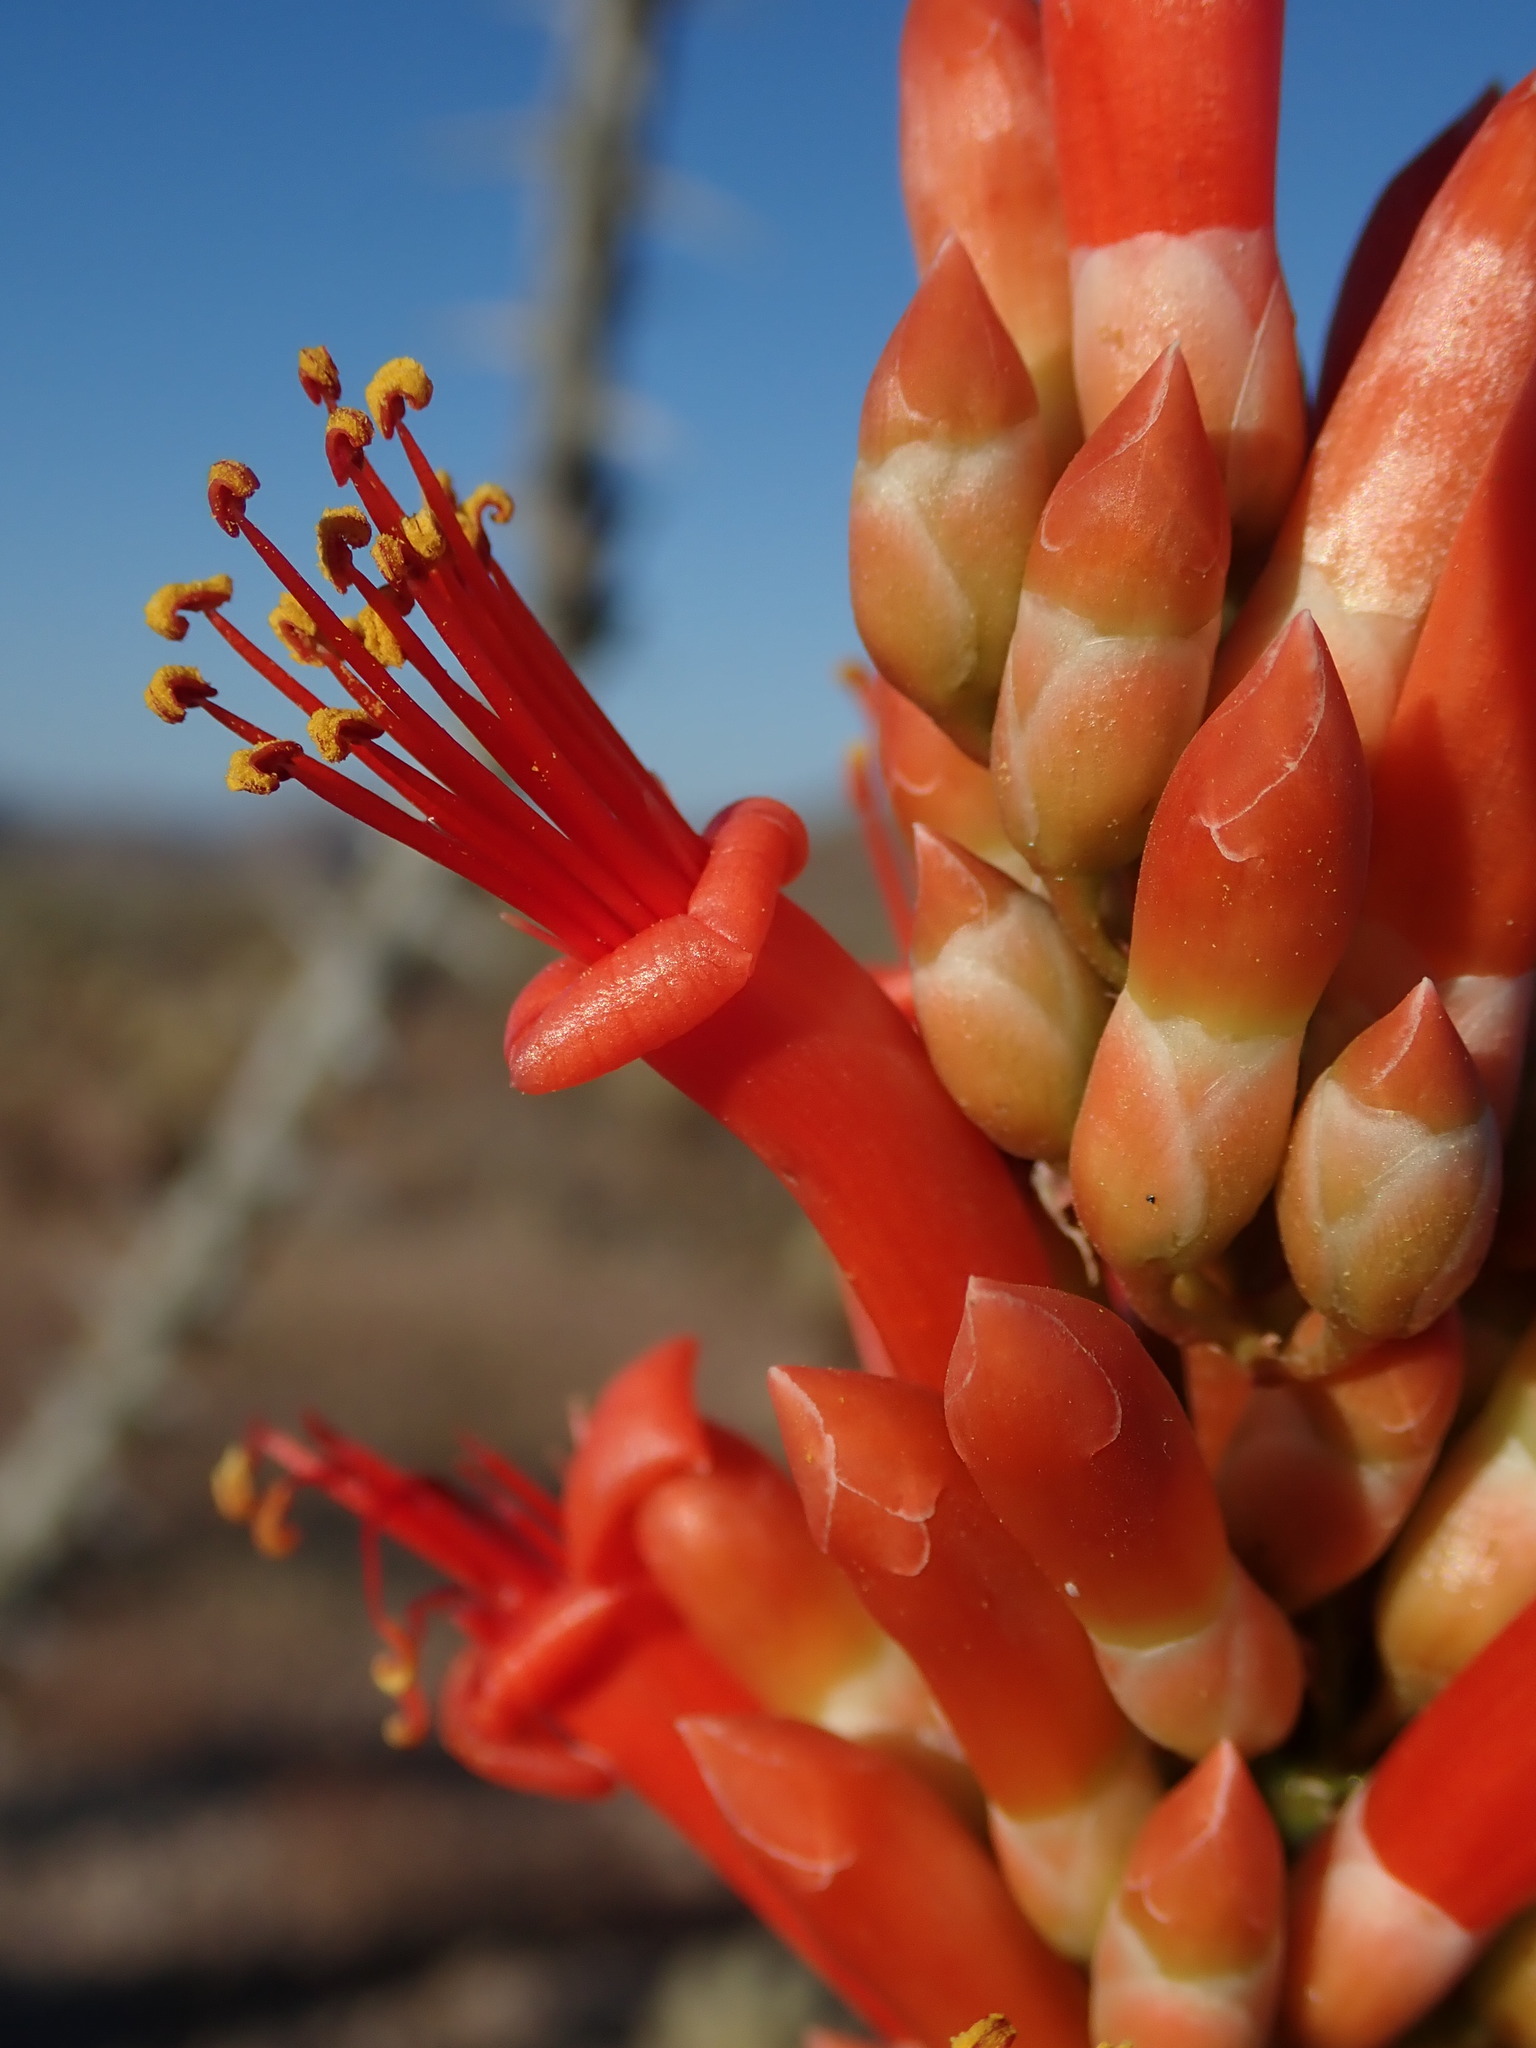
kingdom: Plantae
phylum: Tracheophyta
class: Magnoliopsida
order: Ericales
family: Fouquieriaceae
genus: Fouquieria
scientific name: Fouquieria splendens
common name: Vine-cactus
